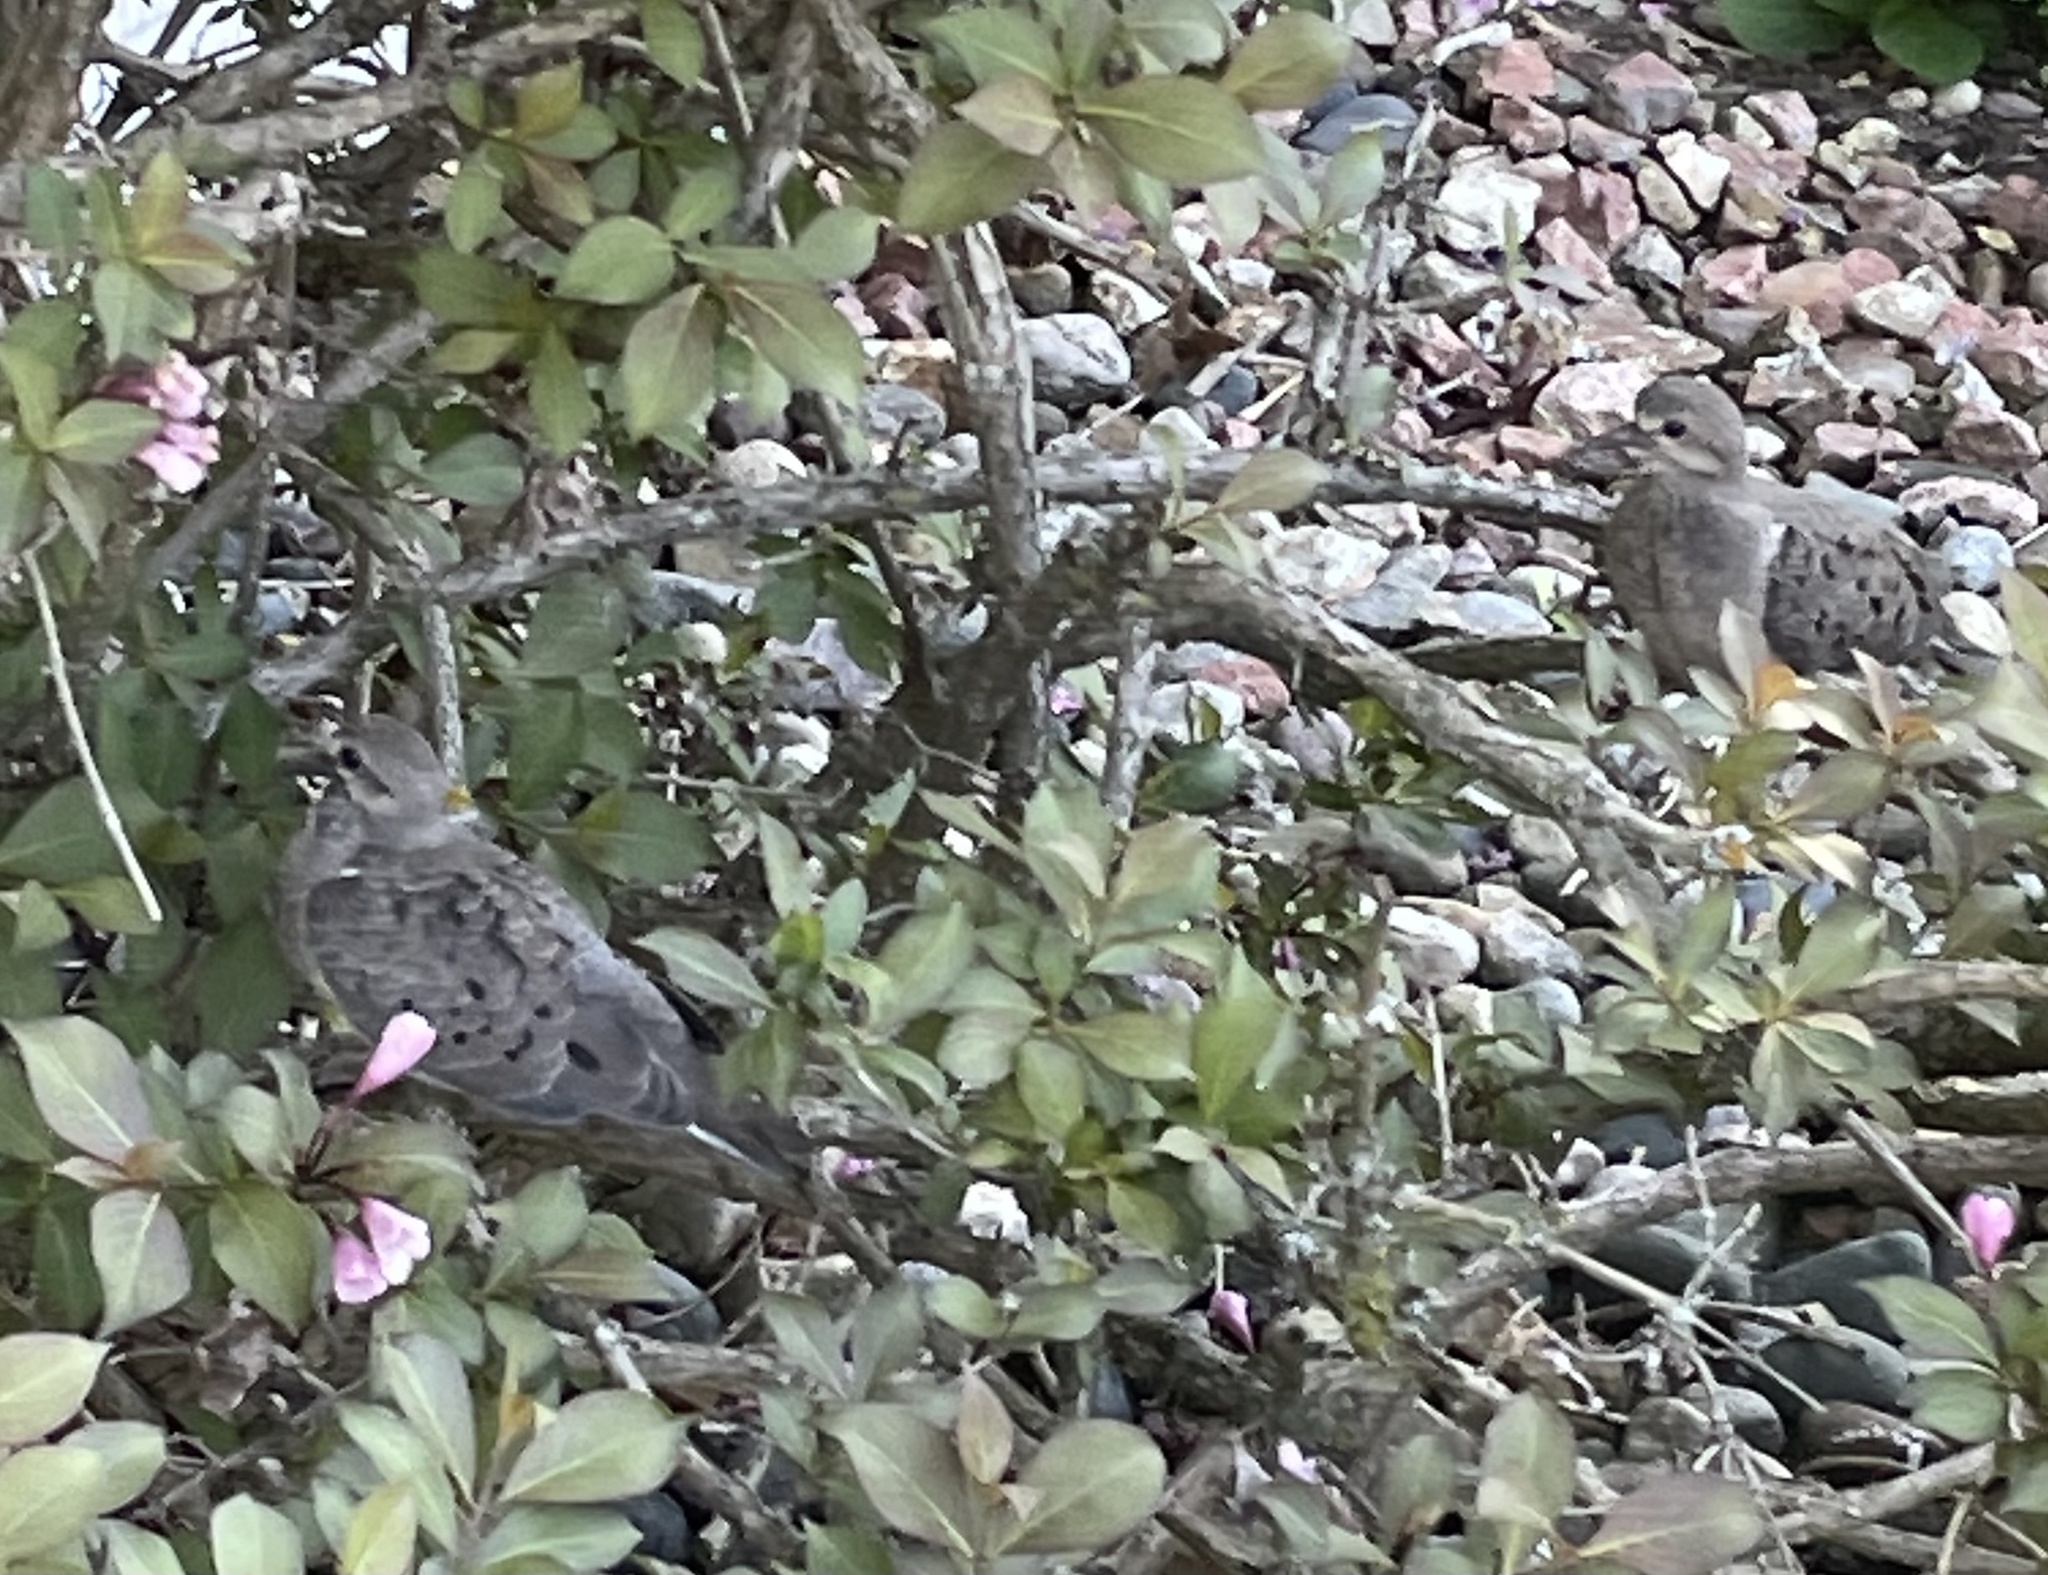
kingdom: Animalia
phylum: Chordata
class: Aves
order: Columbiformes
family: Columbidae
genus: Zenaida
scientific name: Zenaida macroura
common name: Mourning dove
